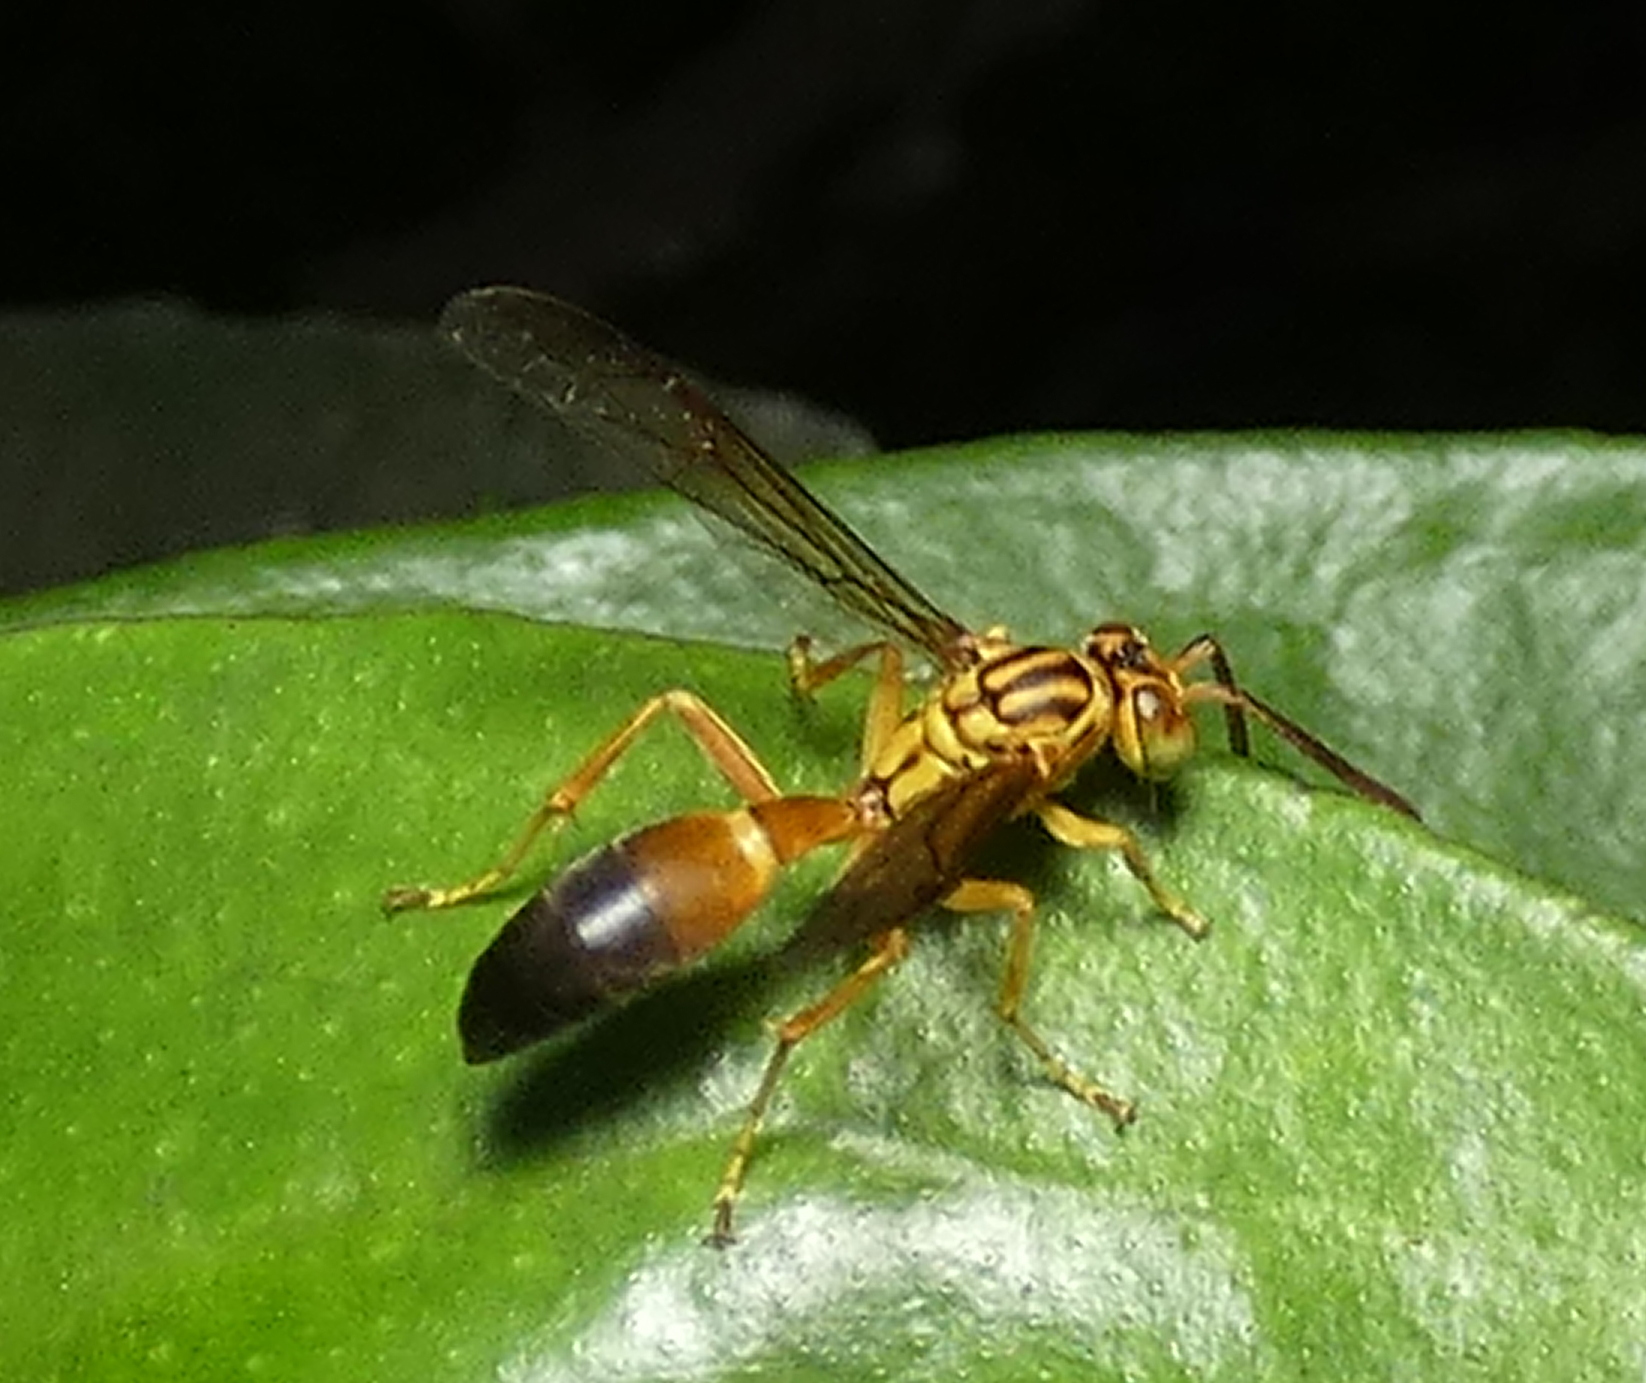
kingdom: Animalia
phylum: Arthropoda
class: Insecta
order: Hymenoptera
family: Vespidae
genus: Agelaia
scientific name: Agelaia pallipes
